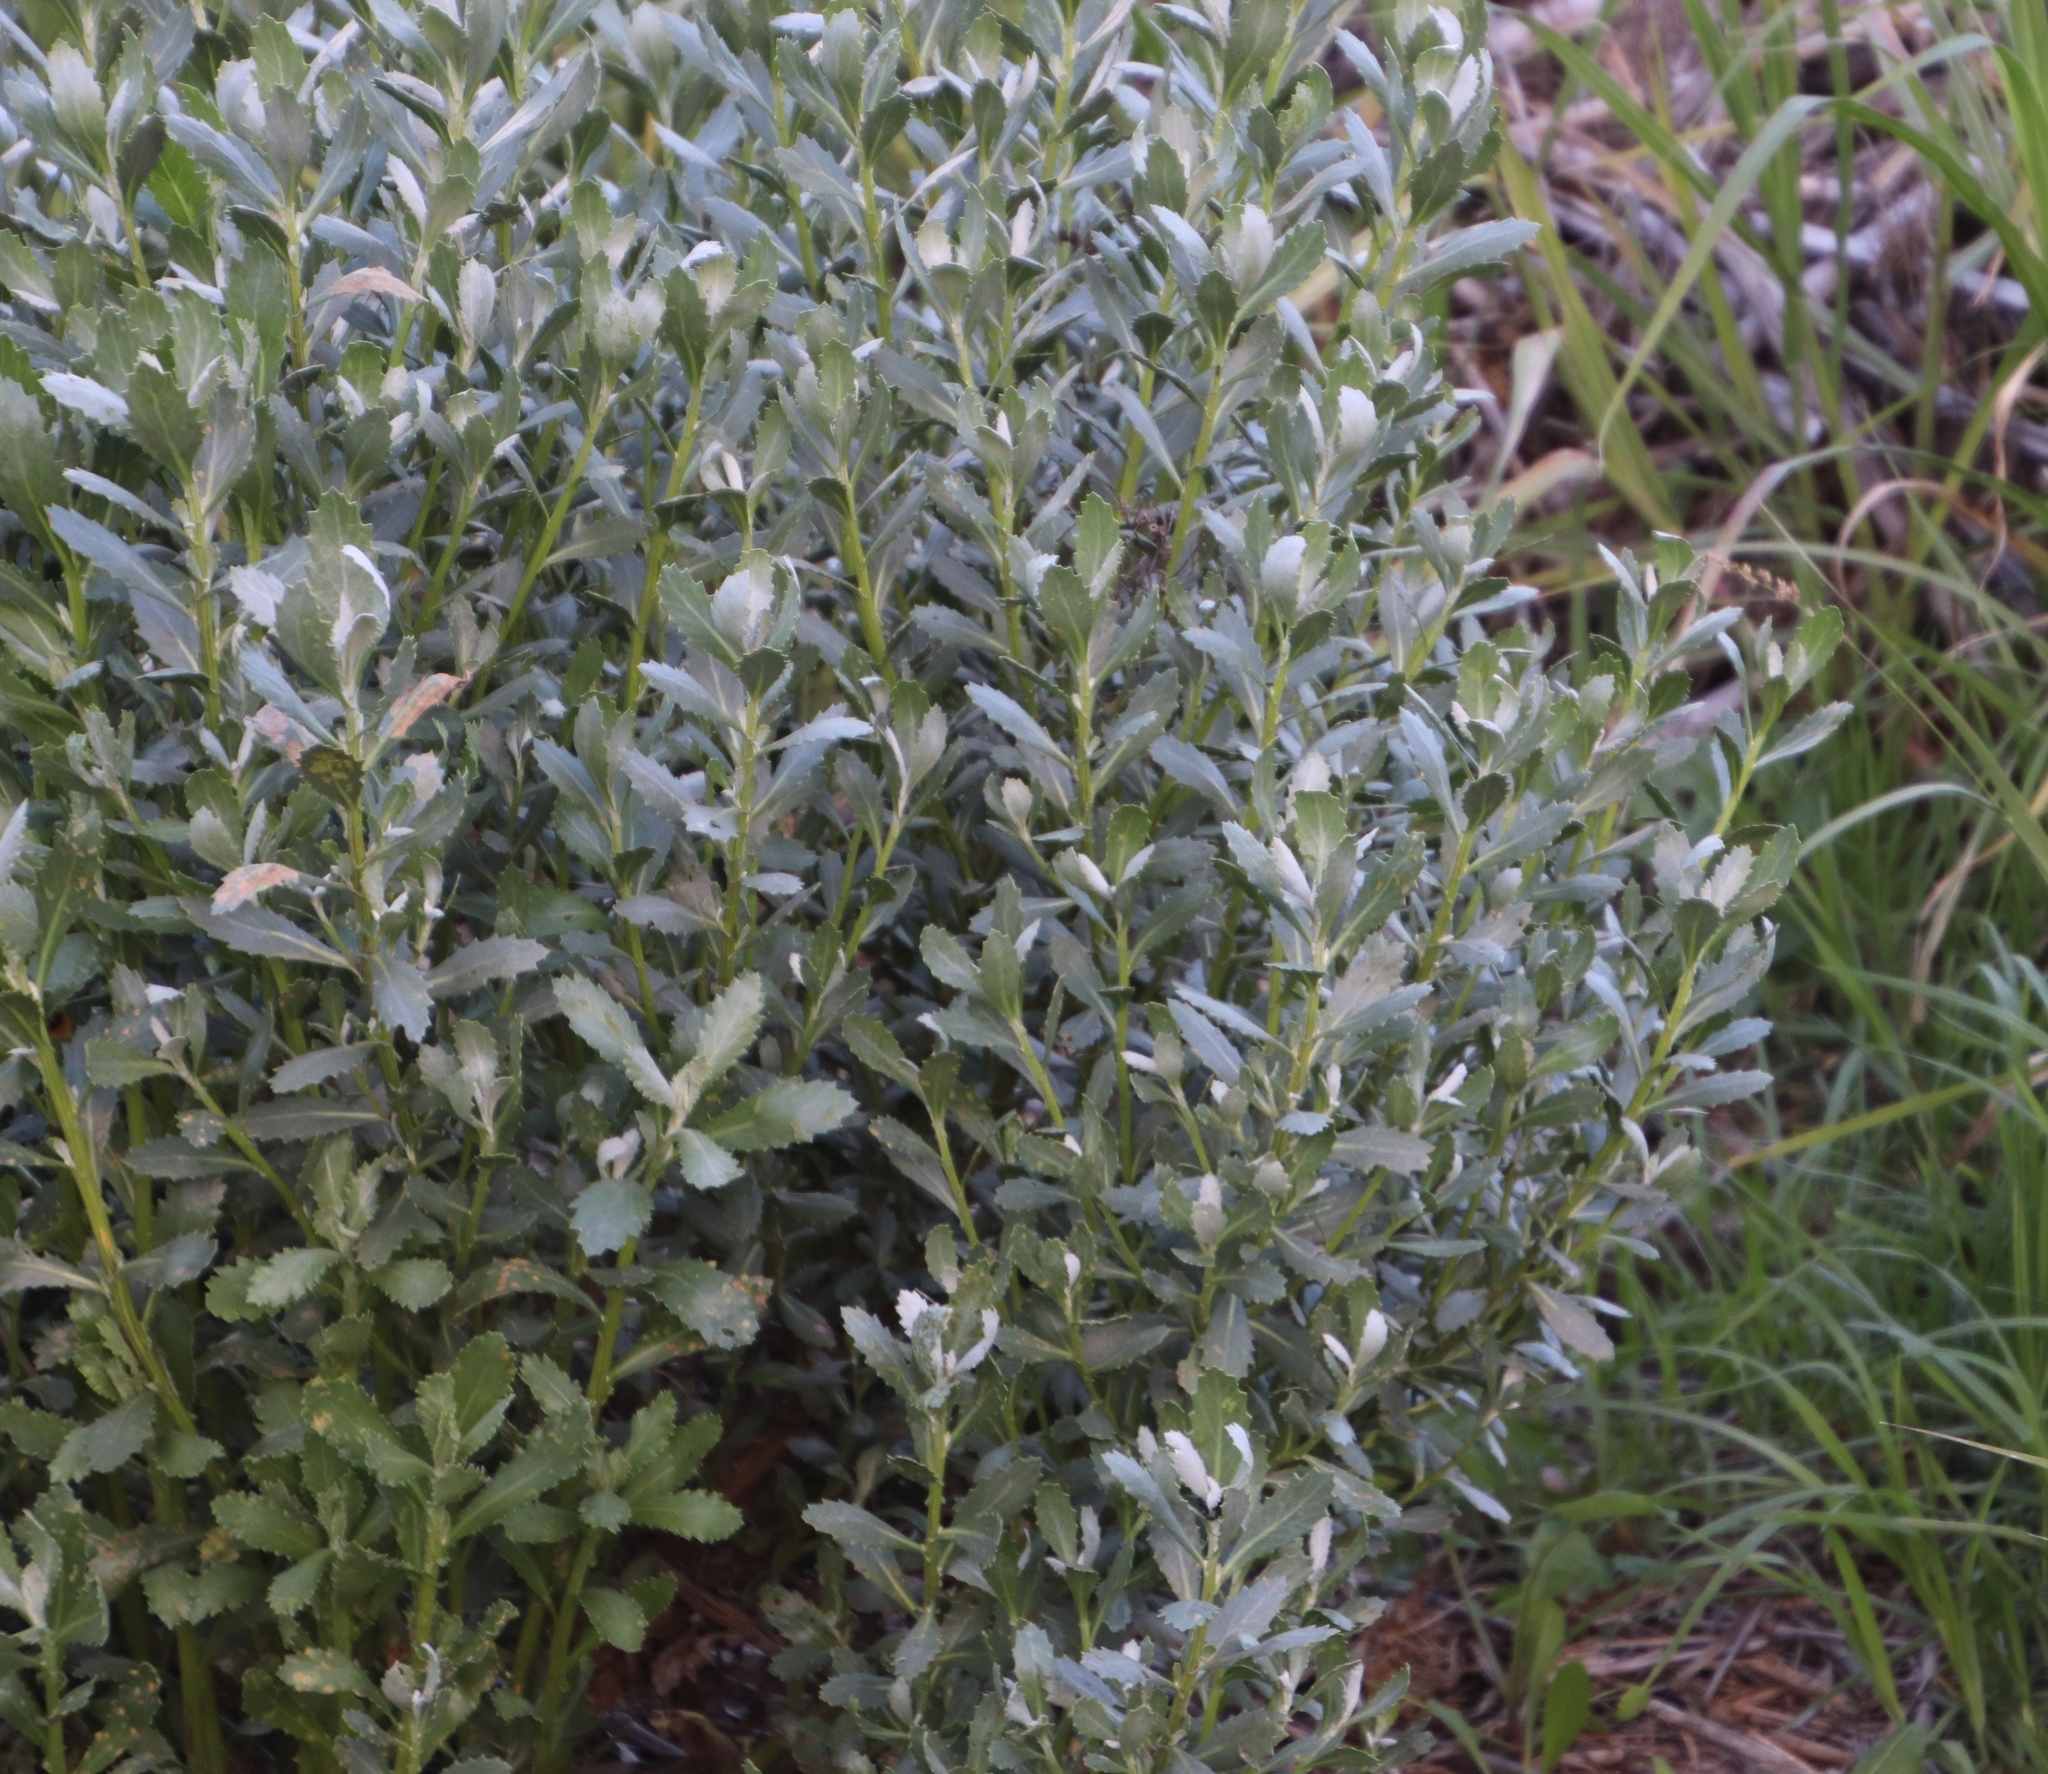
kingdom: Plantae
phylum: Tracheophyta
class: Magnoliopsida
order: Asterales
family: Asteraceae
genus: Senecio
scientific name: Senecio halimifolius
